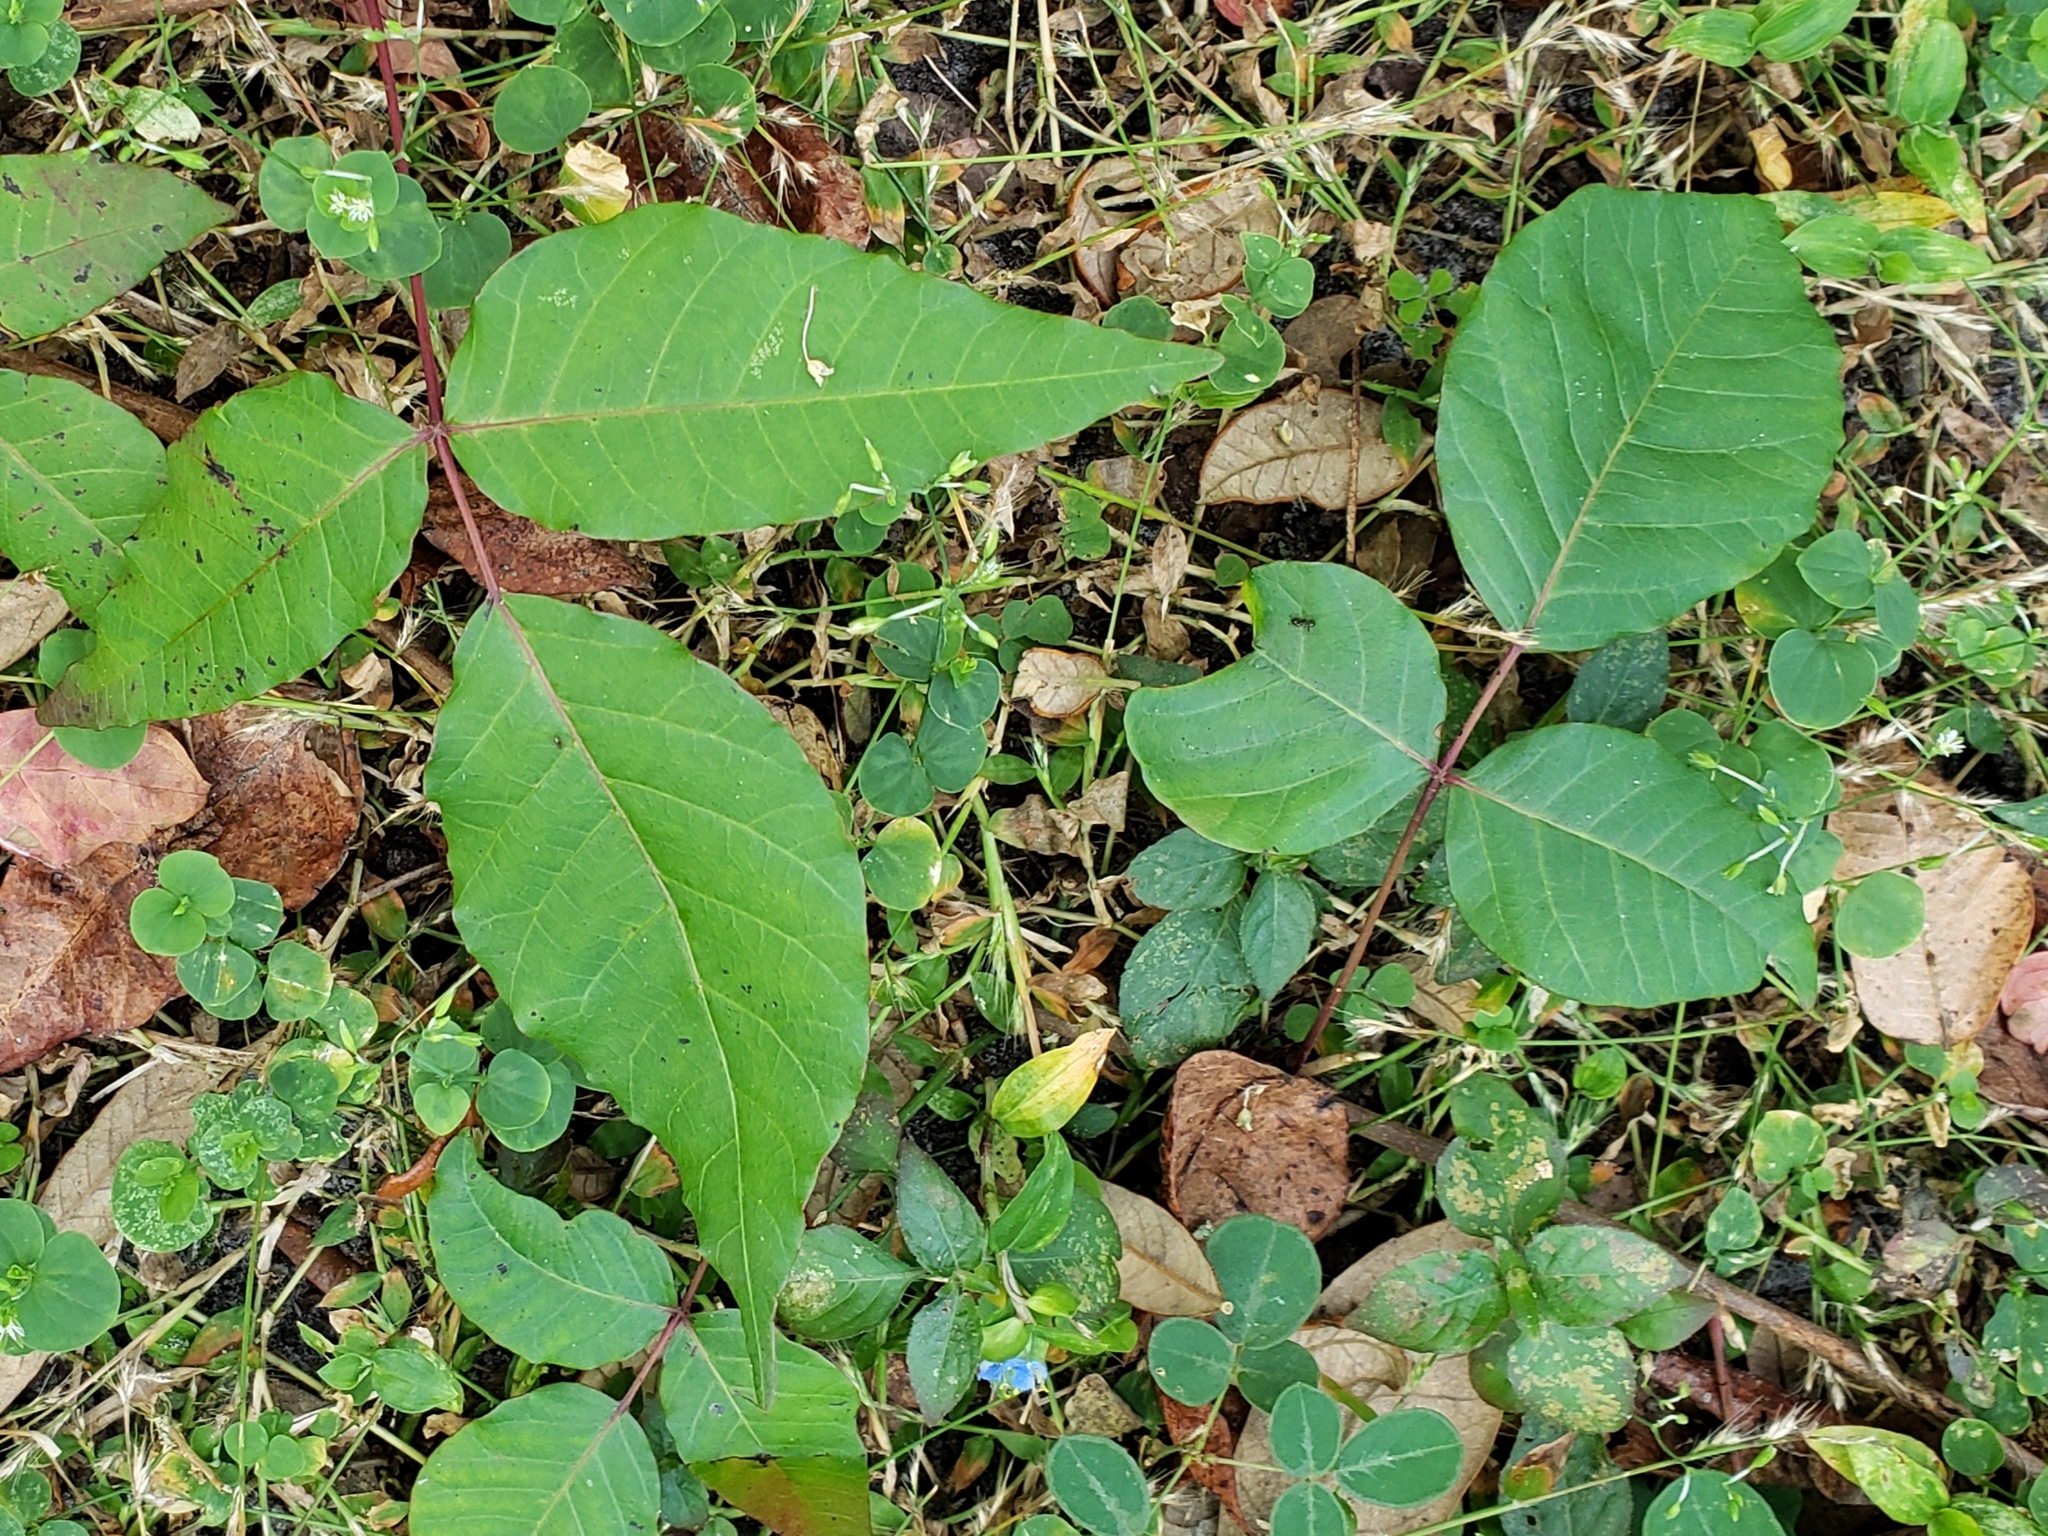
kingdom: Plantae
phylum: Tracheophyta
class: Magnoliopsida
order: Sapindales
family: Anacardiaceae
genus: Toxicodendron
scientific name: Toxicodendron radicans
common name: Poison ivy
